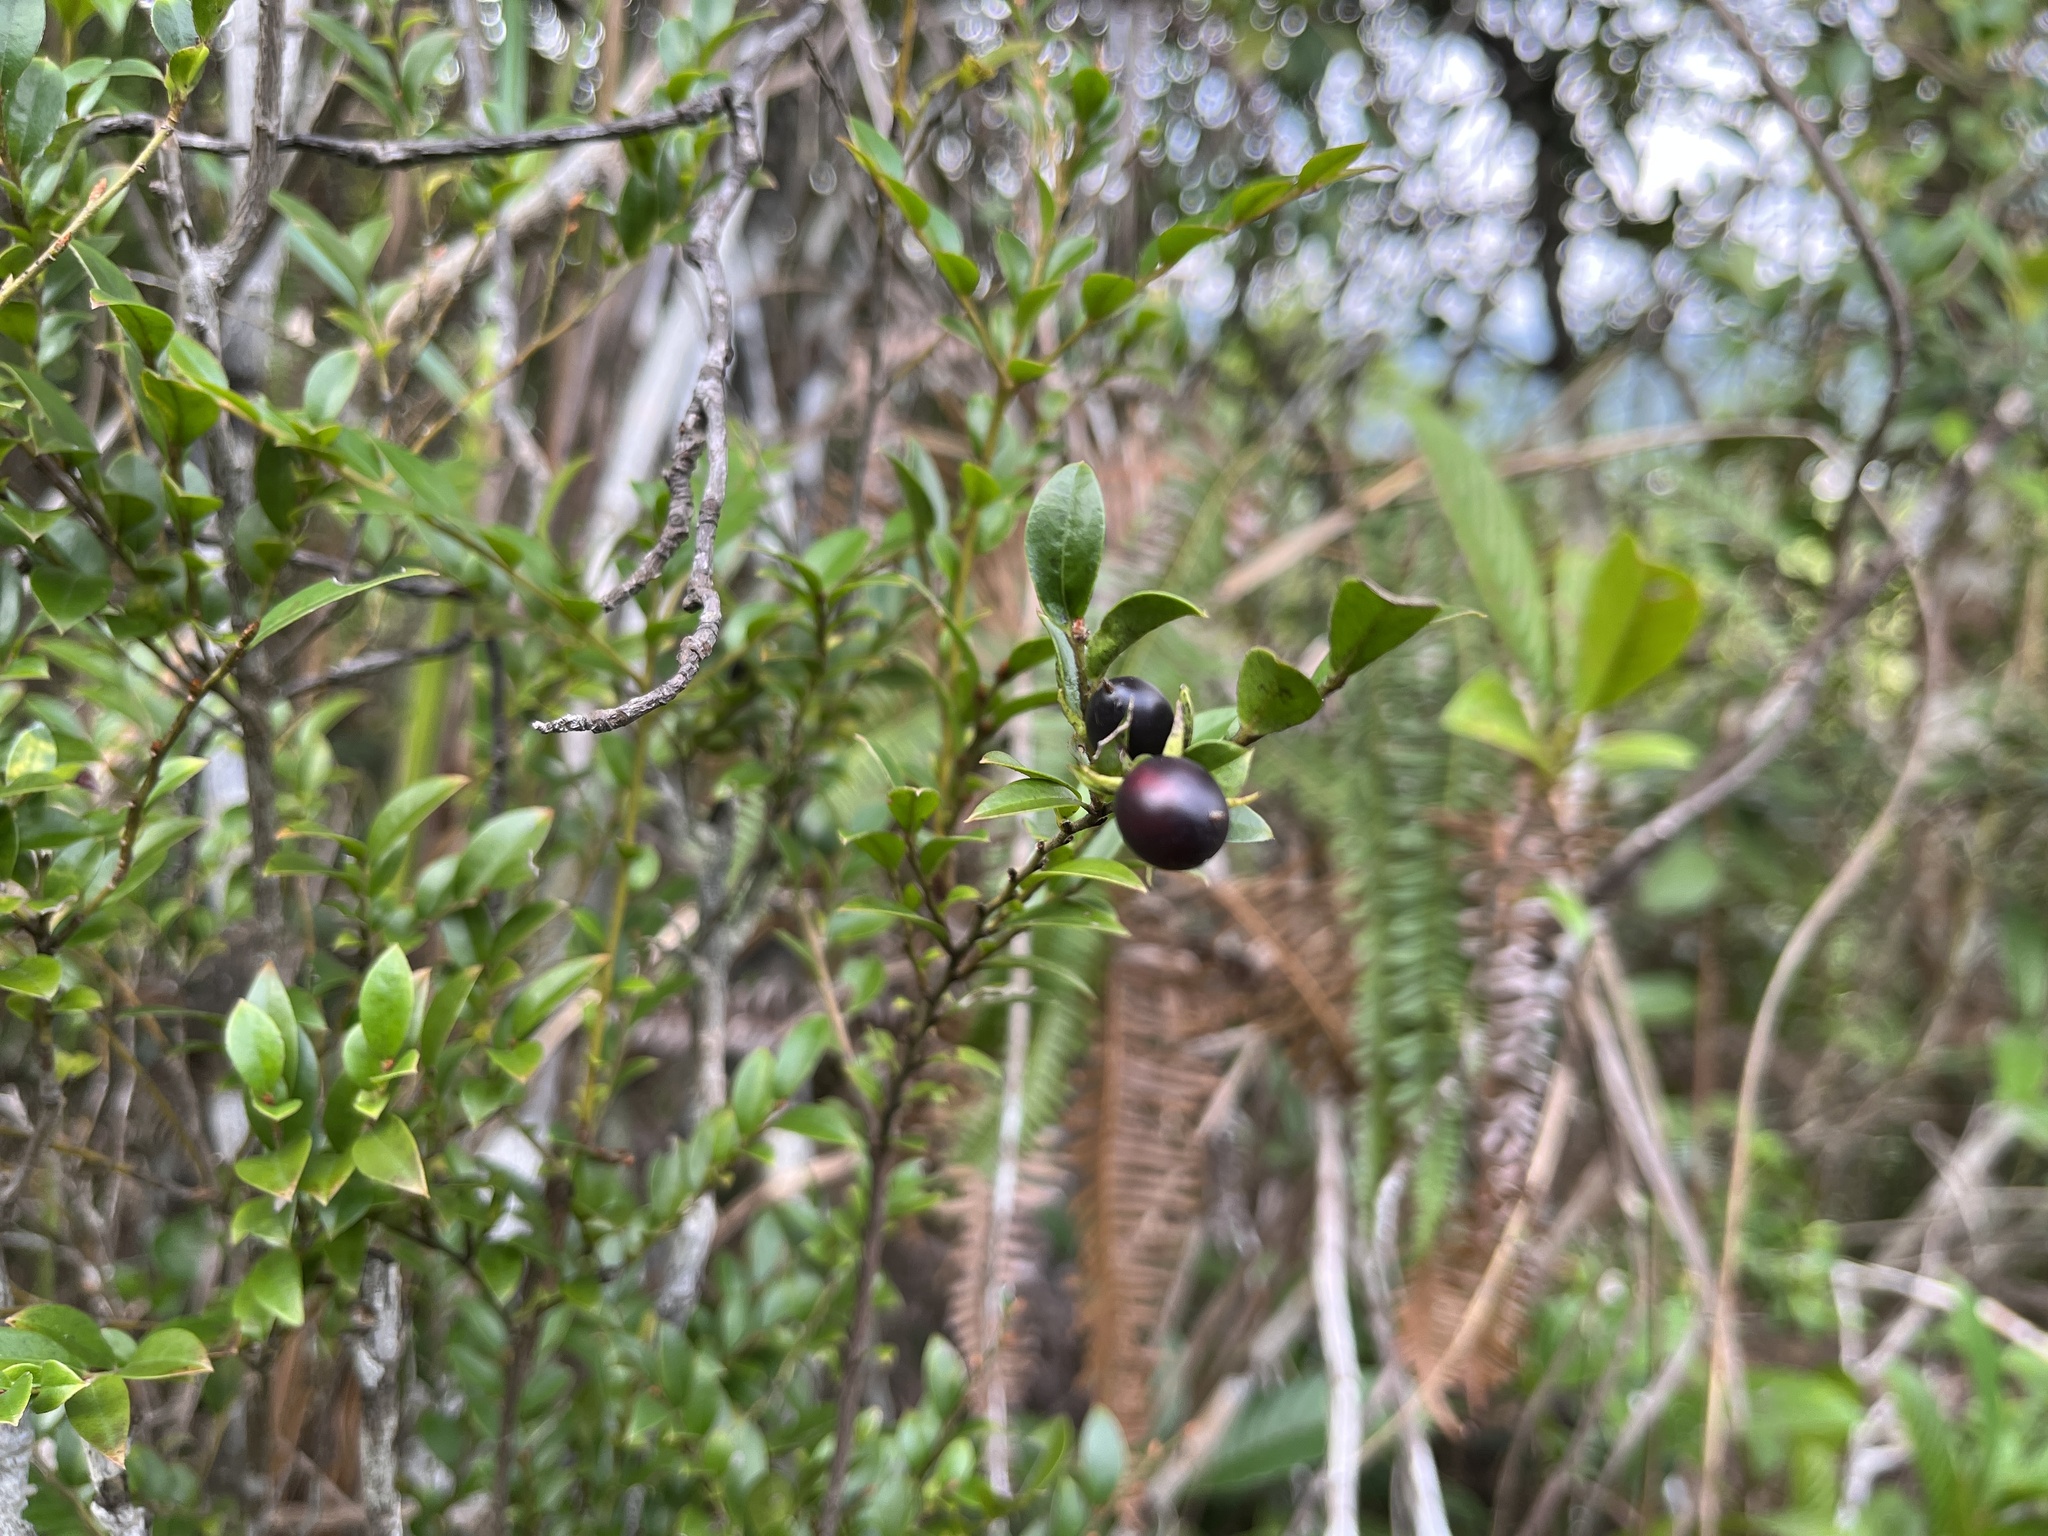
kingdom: Plantae
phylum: Tracheophyta
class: Magnoliopsida
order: Ericales
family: Ebenaceae
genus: Diospyros
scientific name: Diospyros vaccinioides
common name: Small persimmon
